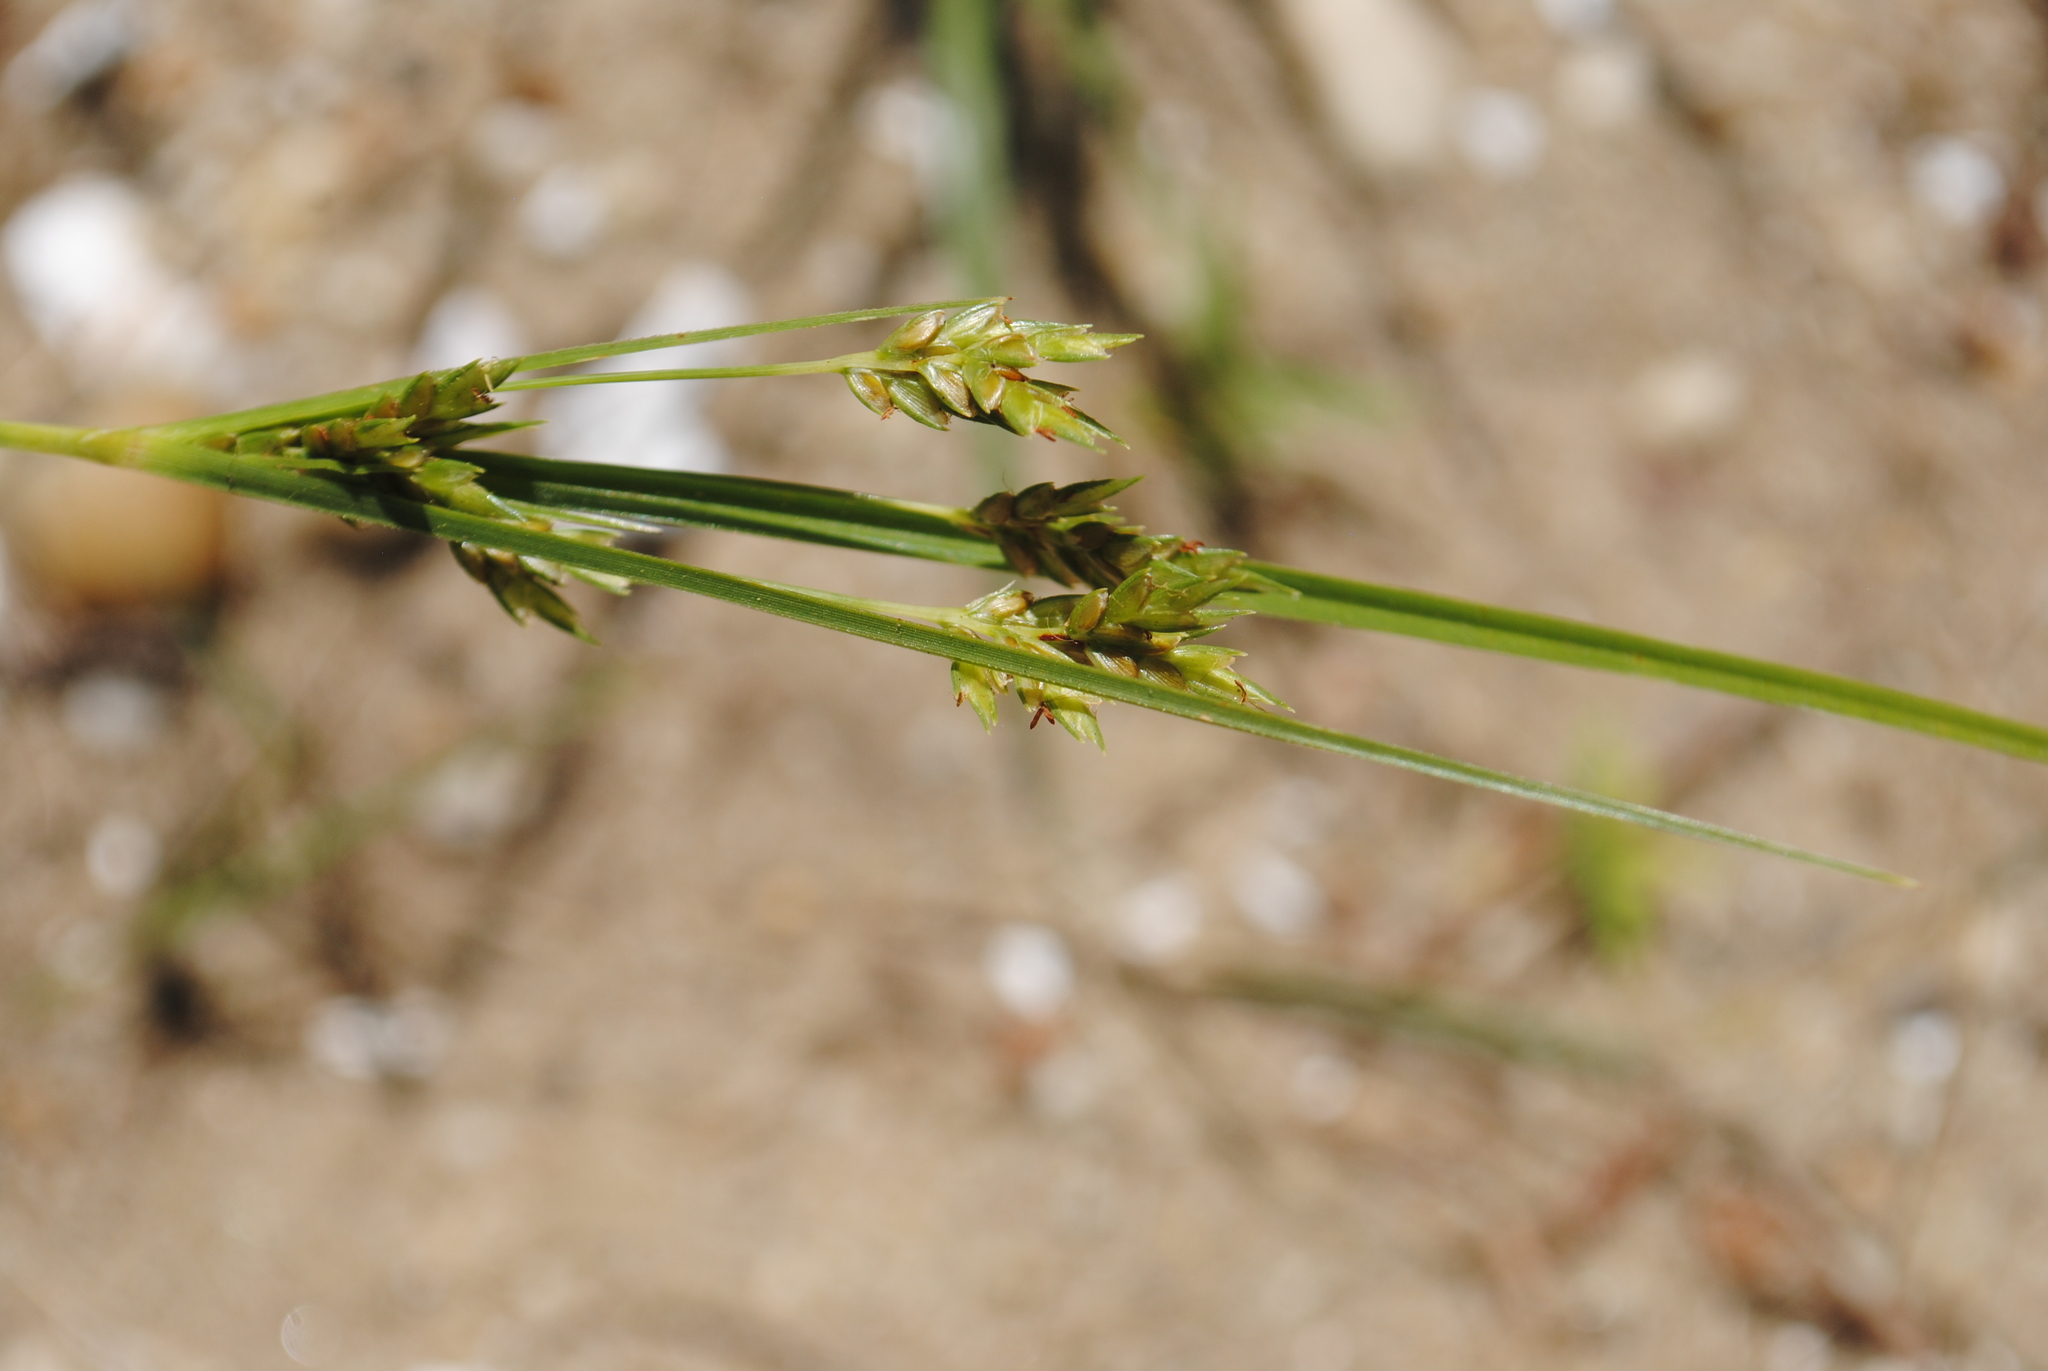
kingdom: Plantae
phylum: Tracheophyta
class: Liliopsida
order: Poales
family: Cyperaceae
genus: Cyperus
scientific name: Cyperus schweinitzii
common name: Schweinitz's cyperus
